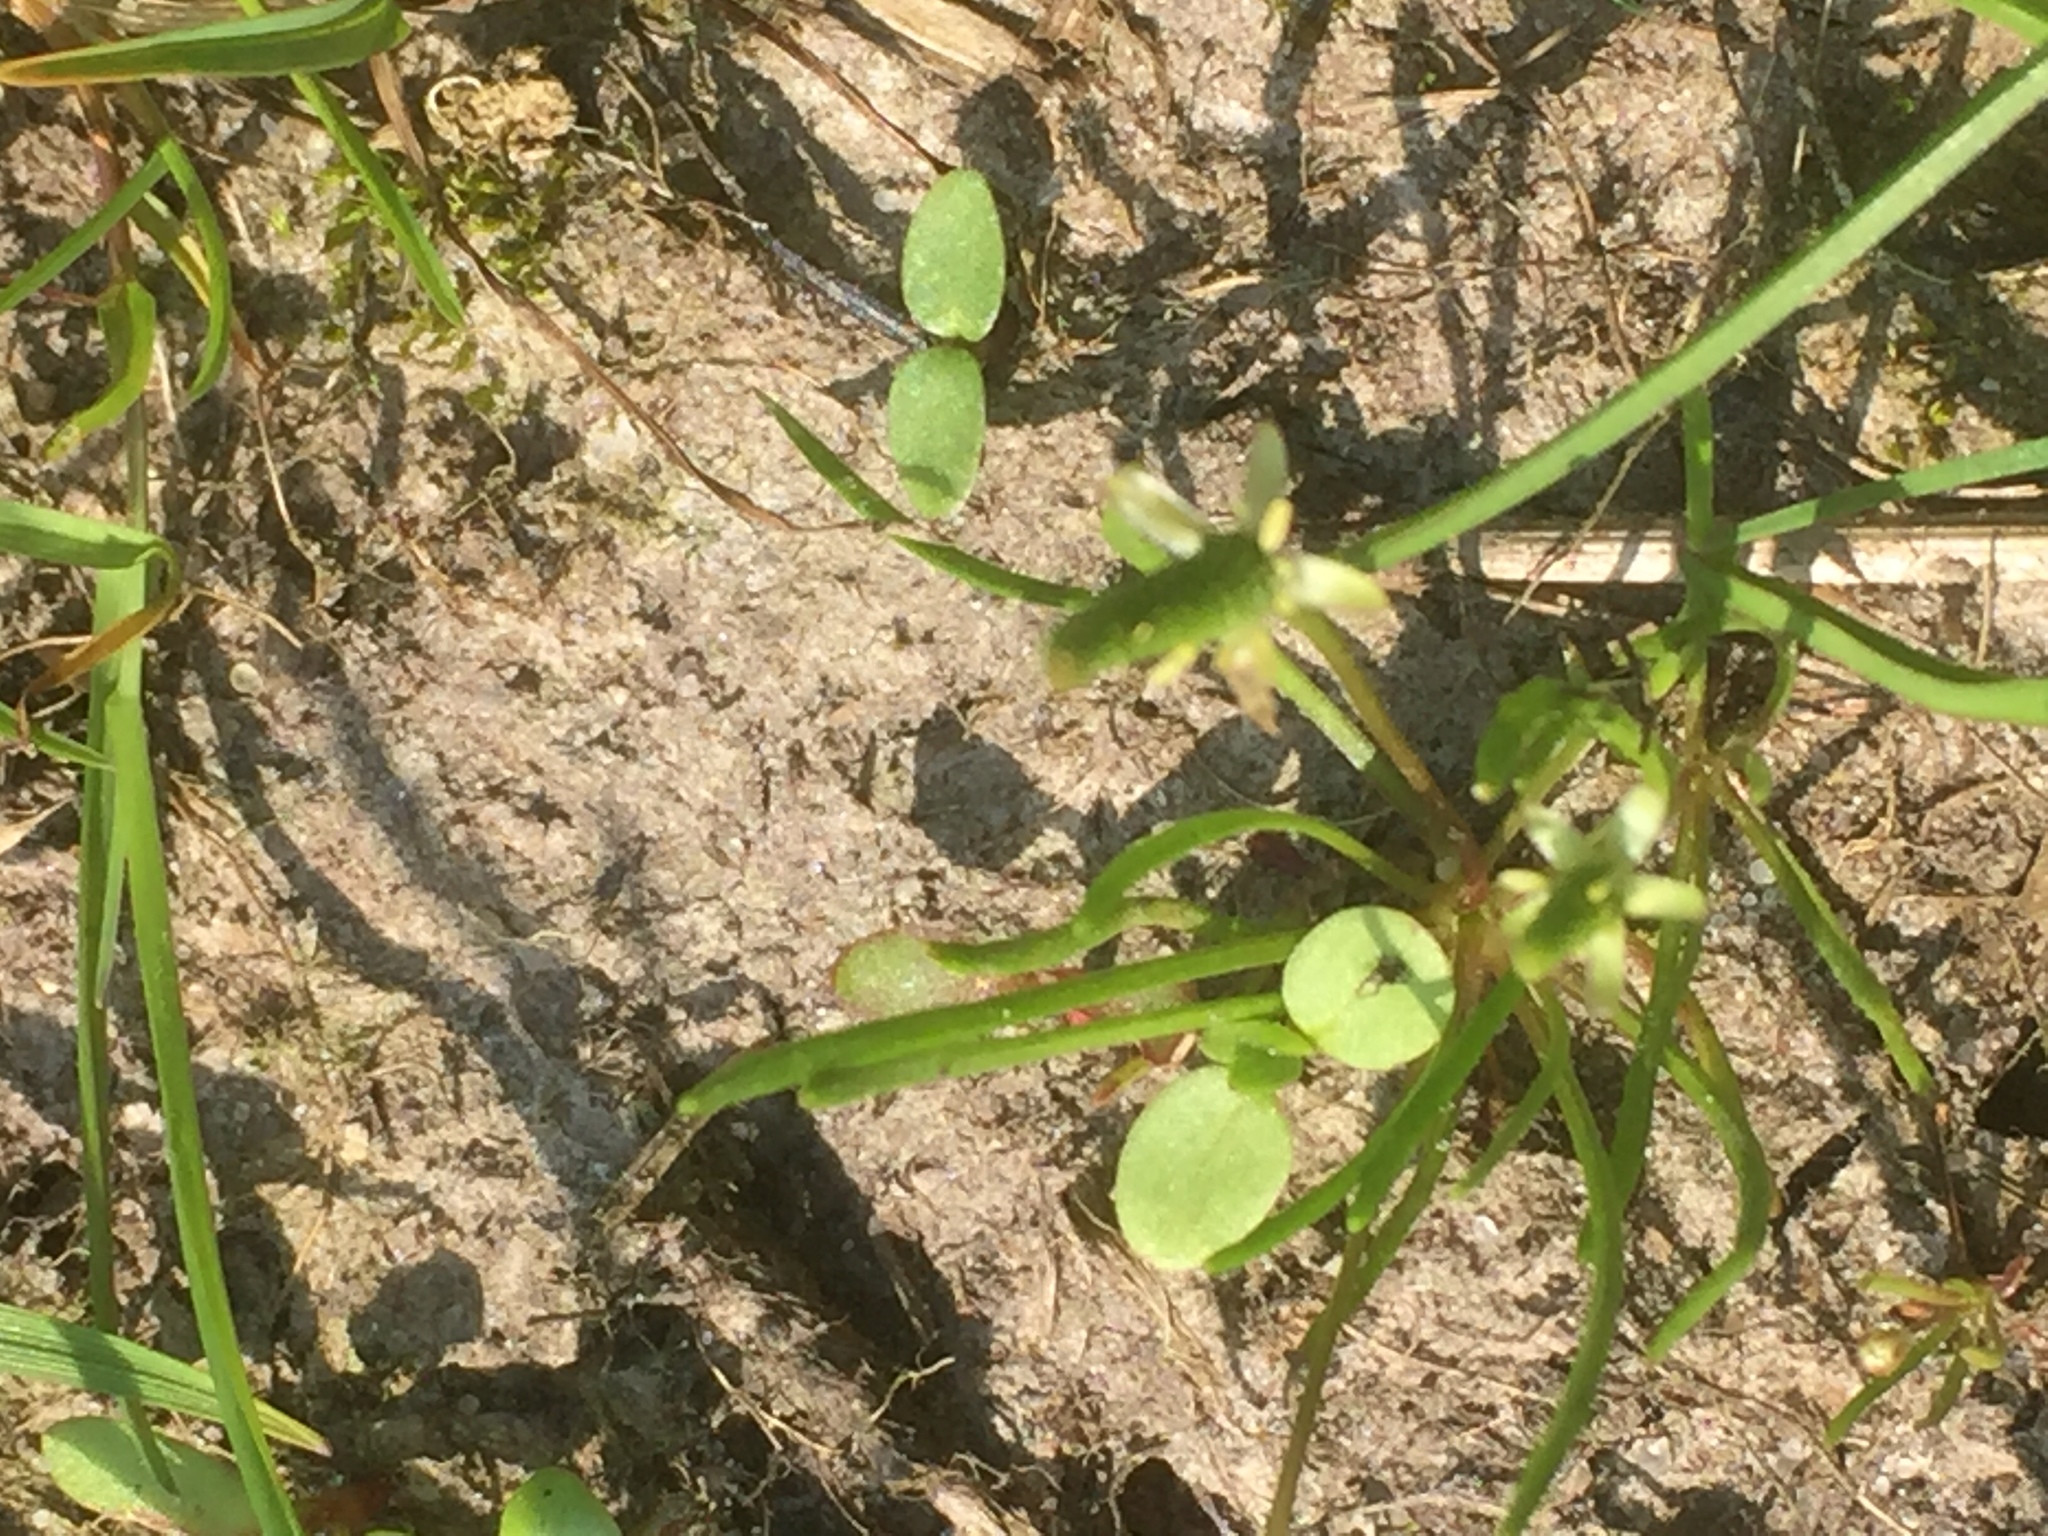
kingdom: Plantae
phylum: Tracheophyta
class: Magnoliopsida
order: Ranunculales
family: Ranunculaceae
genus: Myosurus
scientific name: Myosurus minimus
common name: Mousetail
